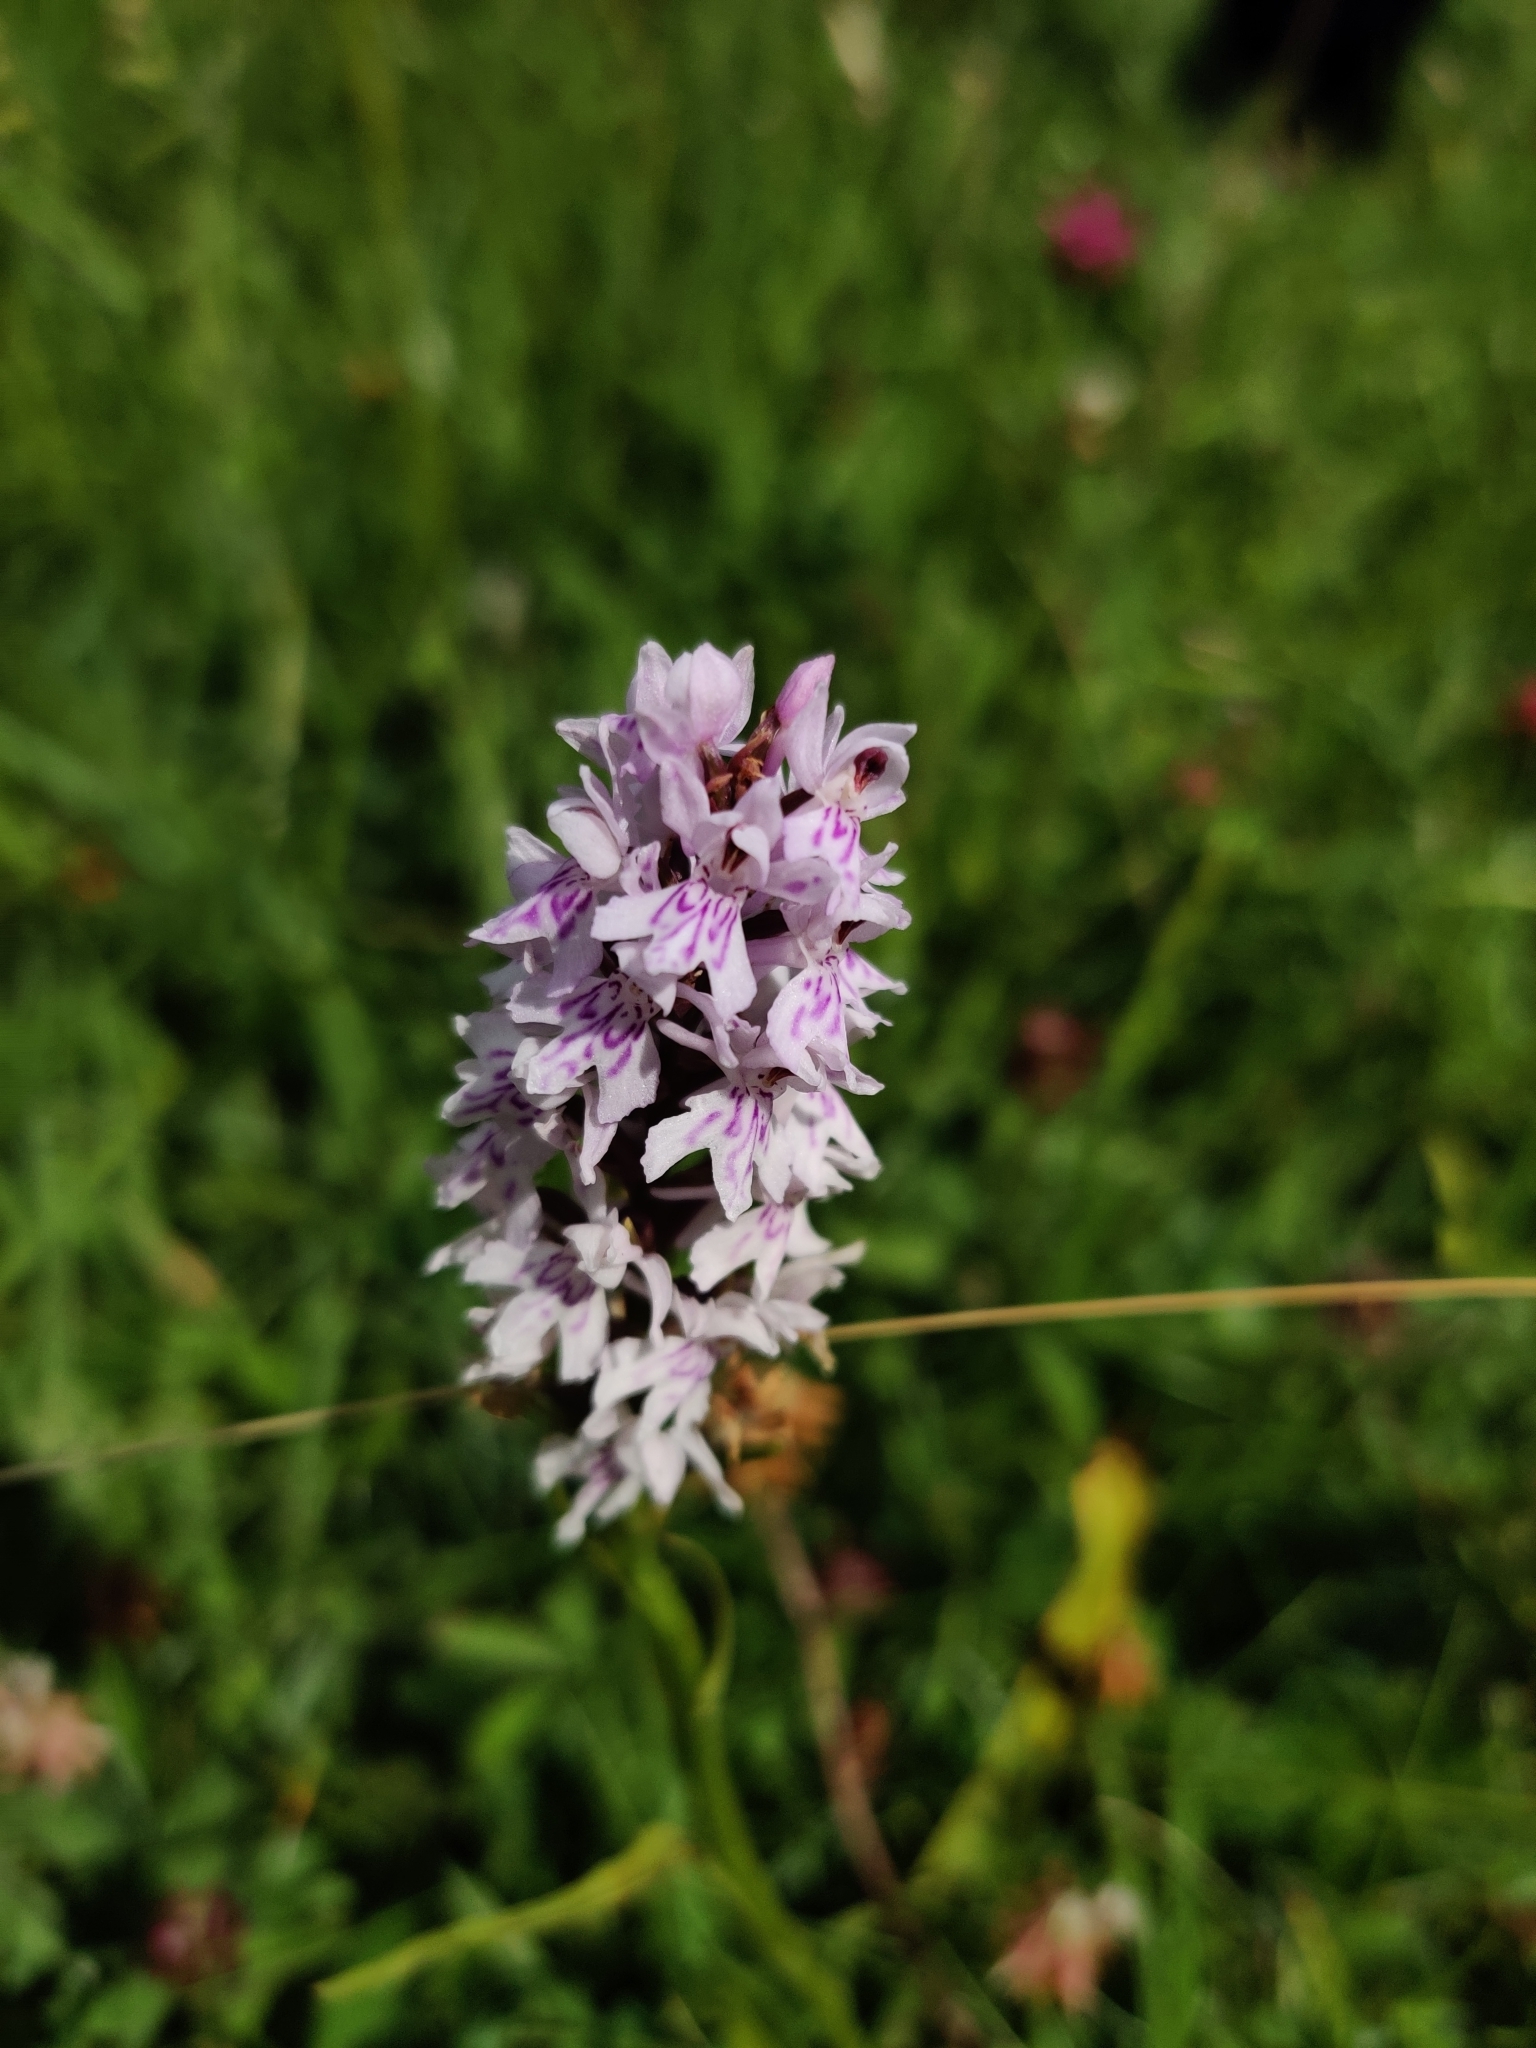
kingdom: Plantae
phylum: Tracheophyta
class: Liliopsida
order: Asparagales
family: Orchidaceae
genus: Dactylorhiza
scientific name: Dactylorhiza maculata
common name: Heath spotted-orchid
